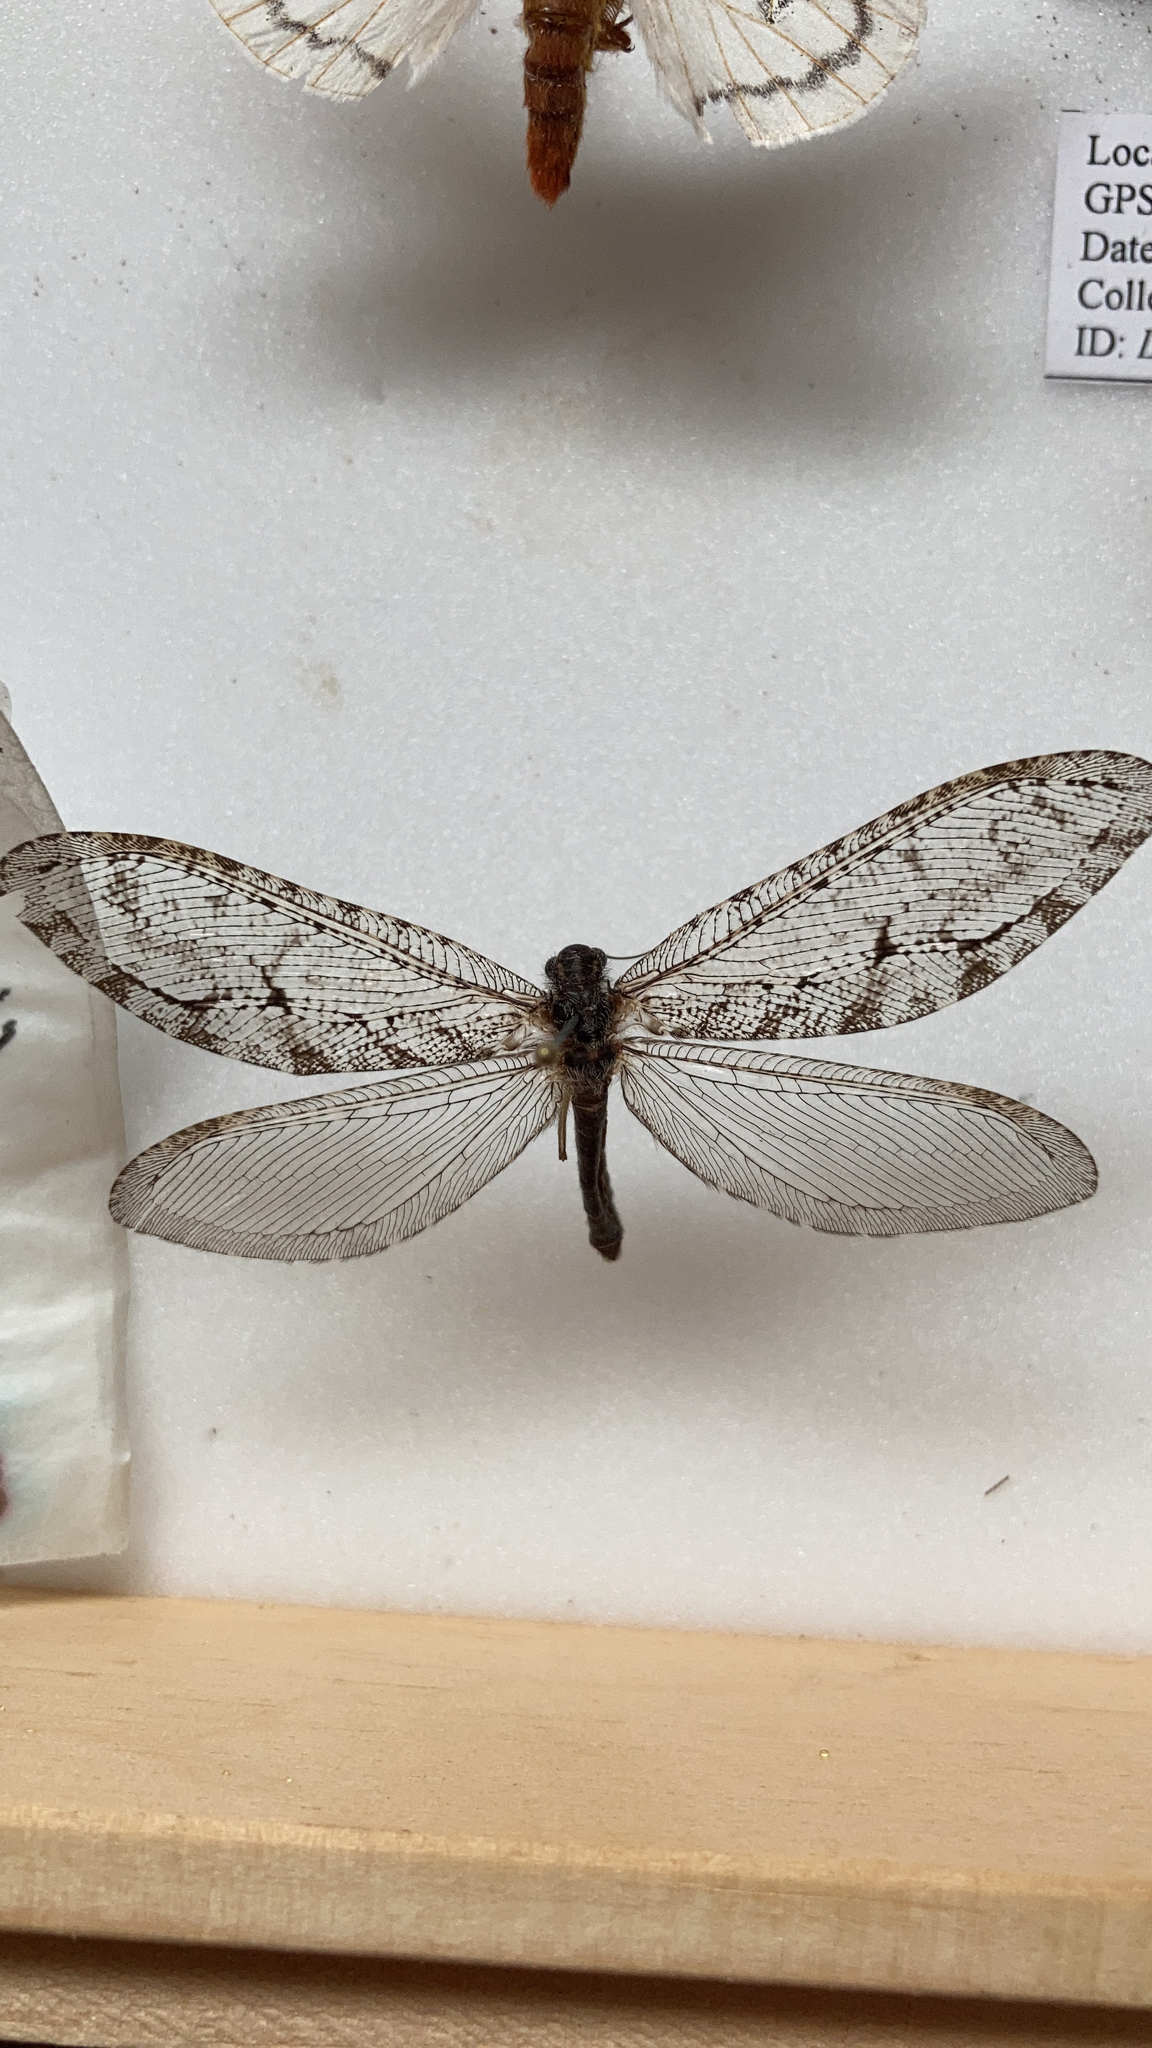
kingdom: Animalia
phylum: Arthropoda
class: Insecta
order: Neuroptera
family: Ithonidae
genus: Polystoechotes
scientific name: Polystoechotes punctata
